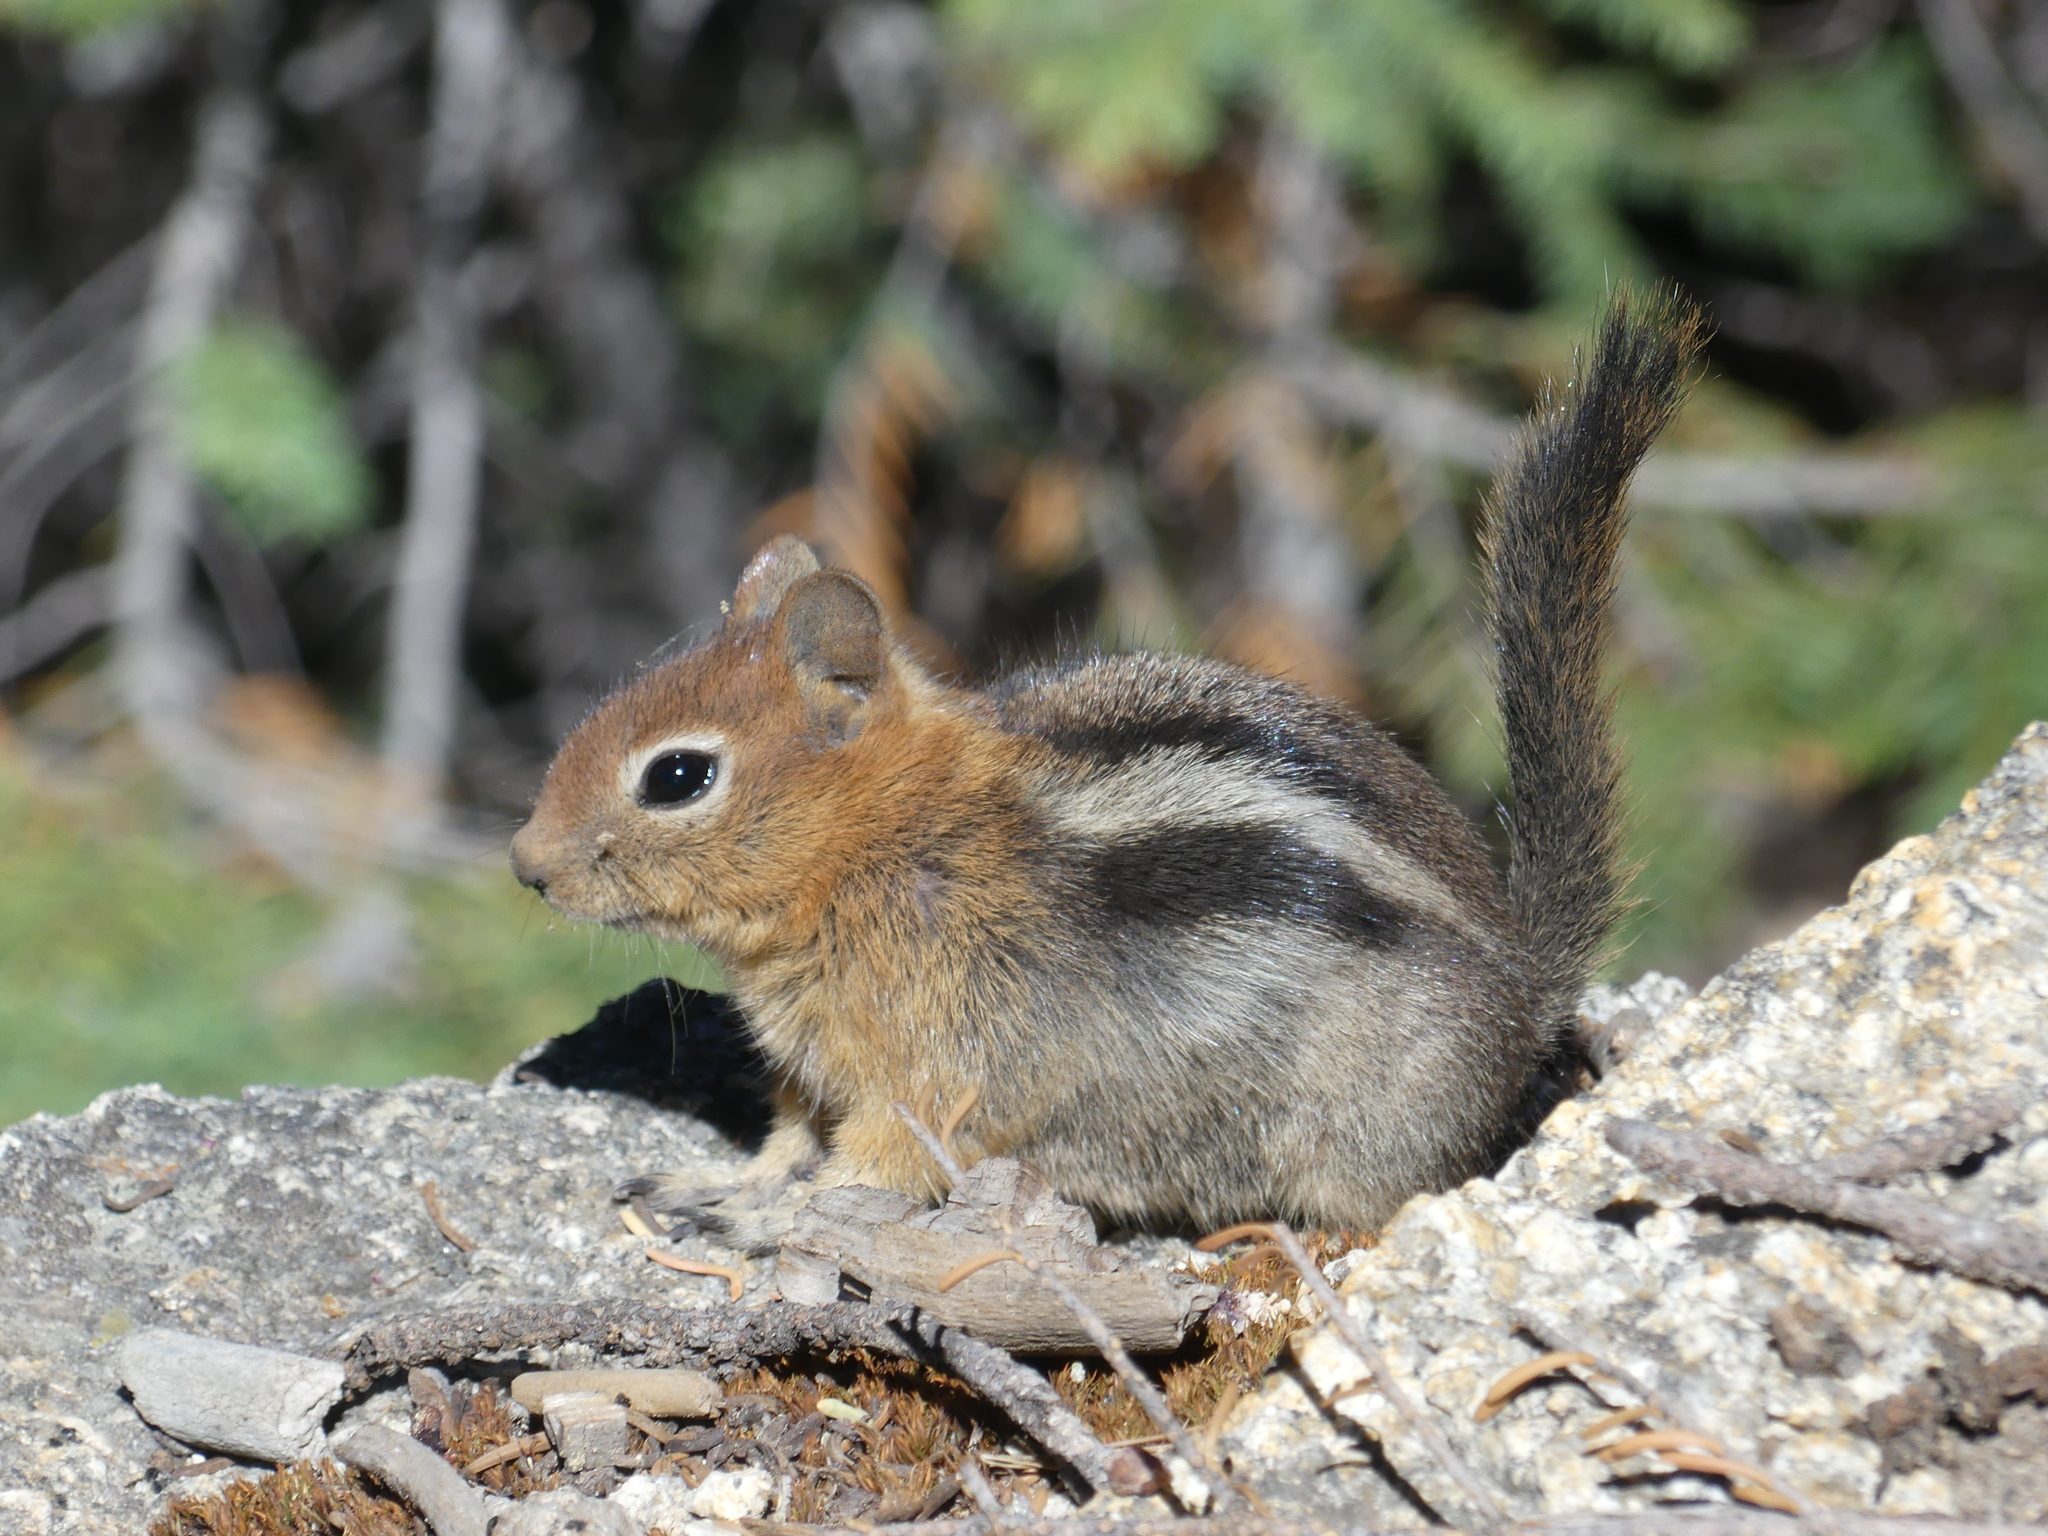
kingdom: Animalia
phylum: Chordata
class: Mammalia
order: Rodentia
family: Sciuridae
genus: Callospermophilus
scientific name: Callospermophilus lateralis
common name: Golden-mantled ground squirrel
